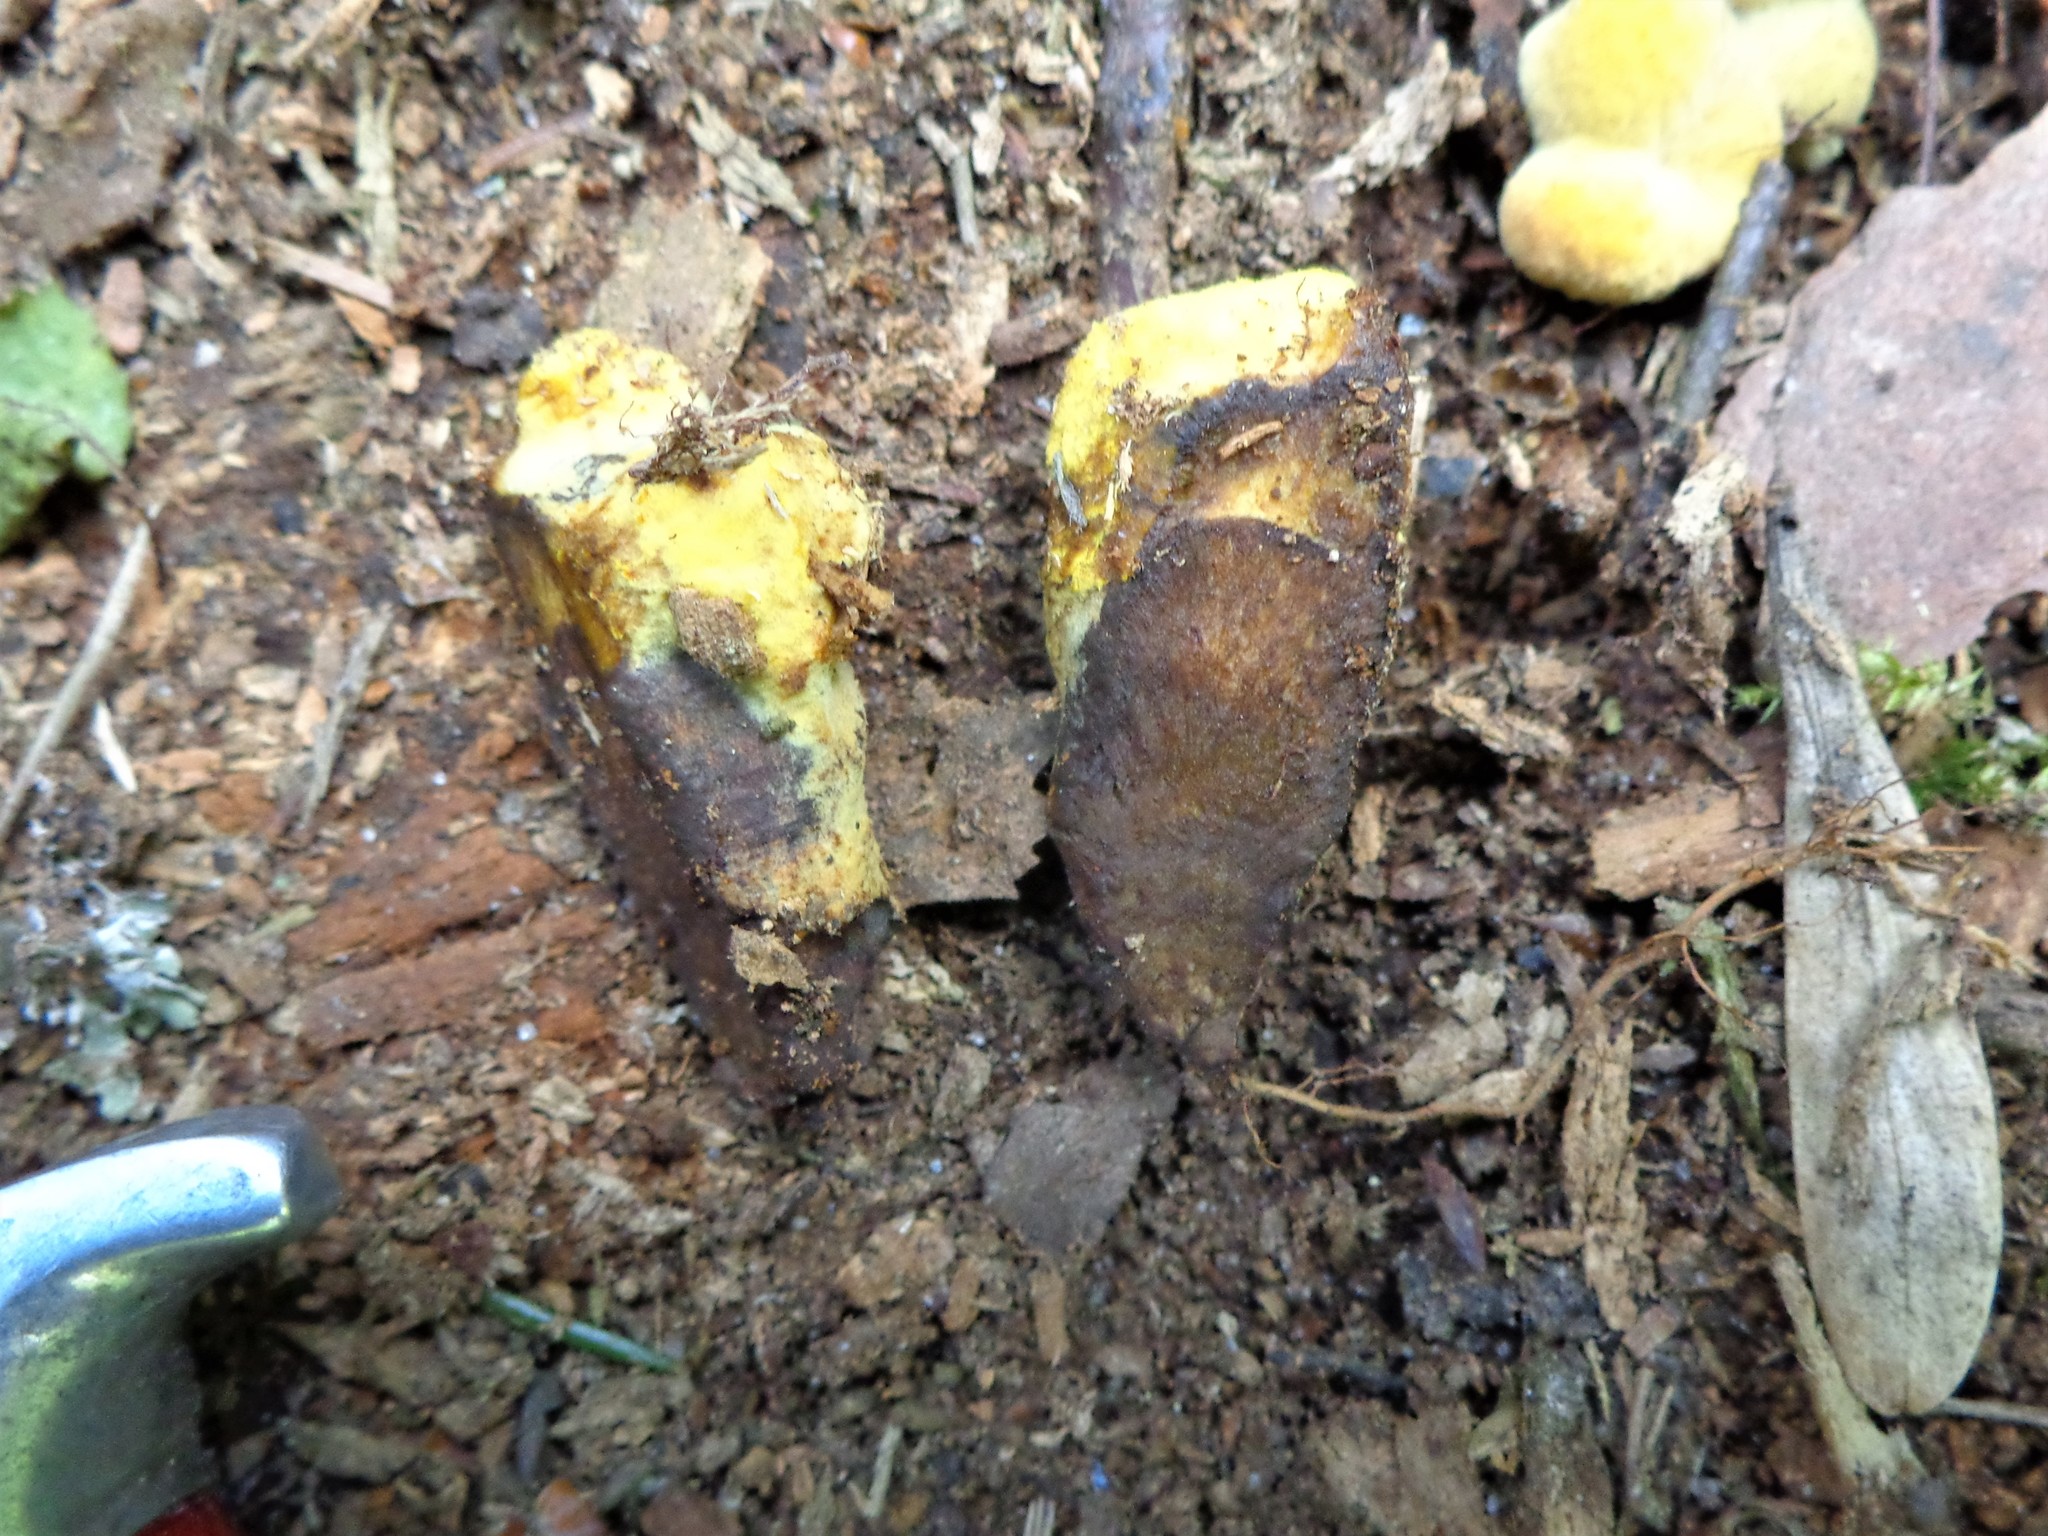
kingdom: Fungi
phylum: Basidiomycota
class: Agaricomycetes
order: Polyporales
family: Laetiporaceae
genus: Phaeolus
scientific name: Phaeolus schweinitzii
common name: Dyer's mazegill
